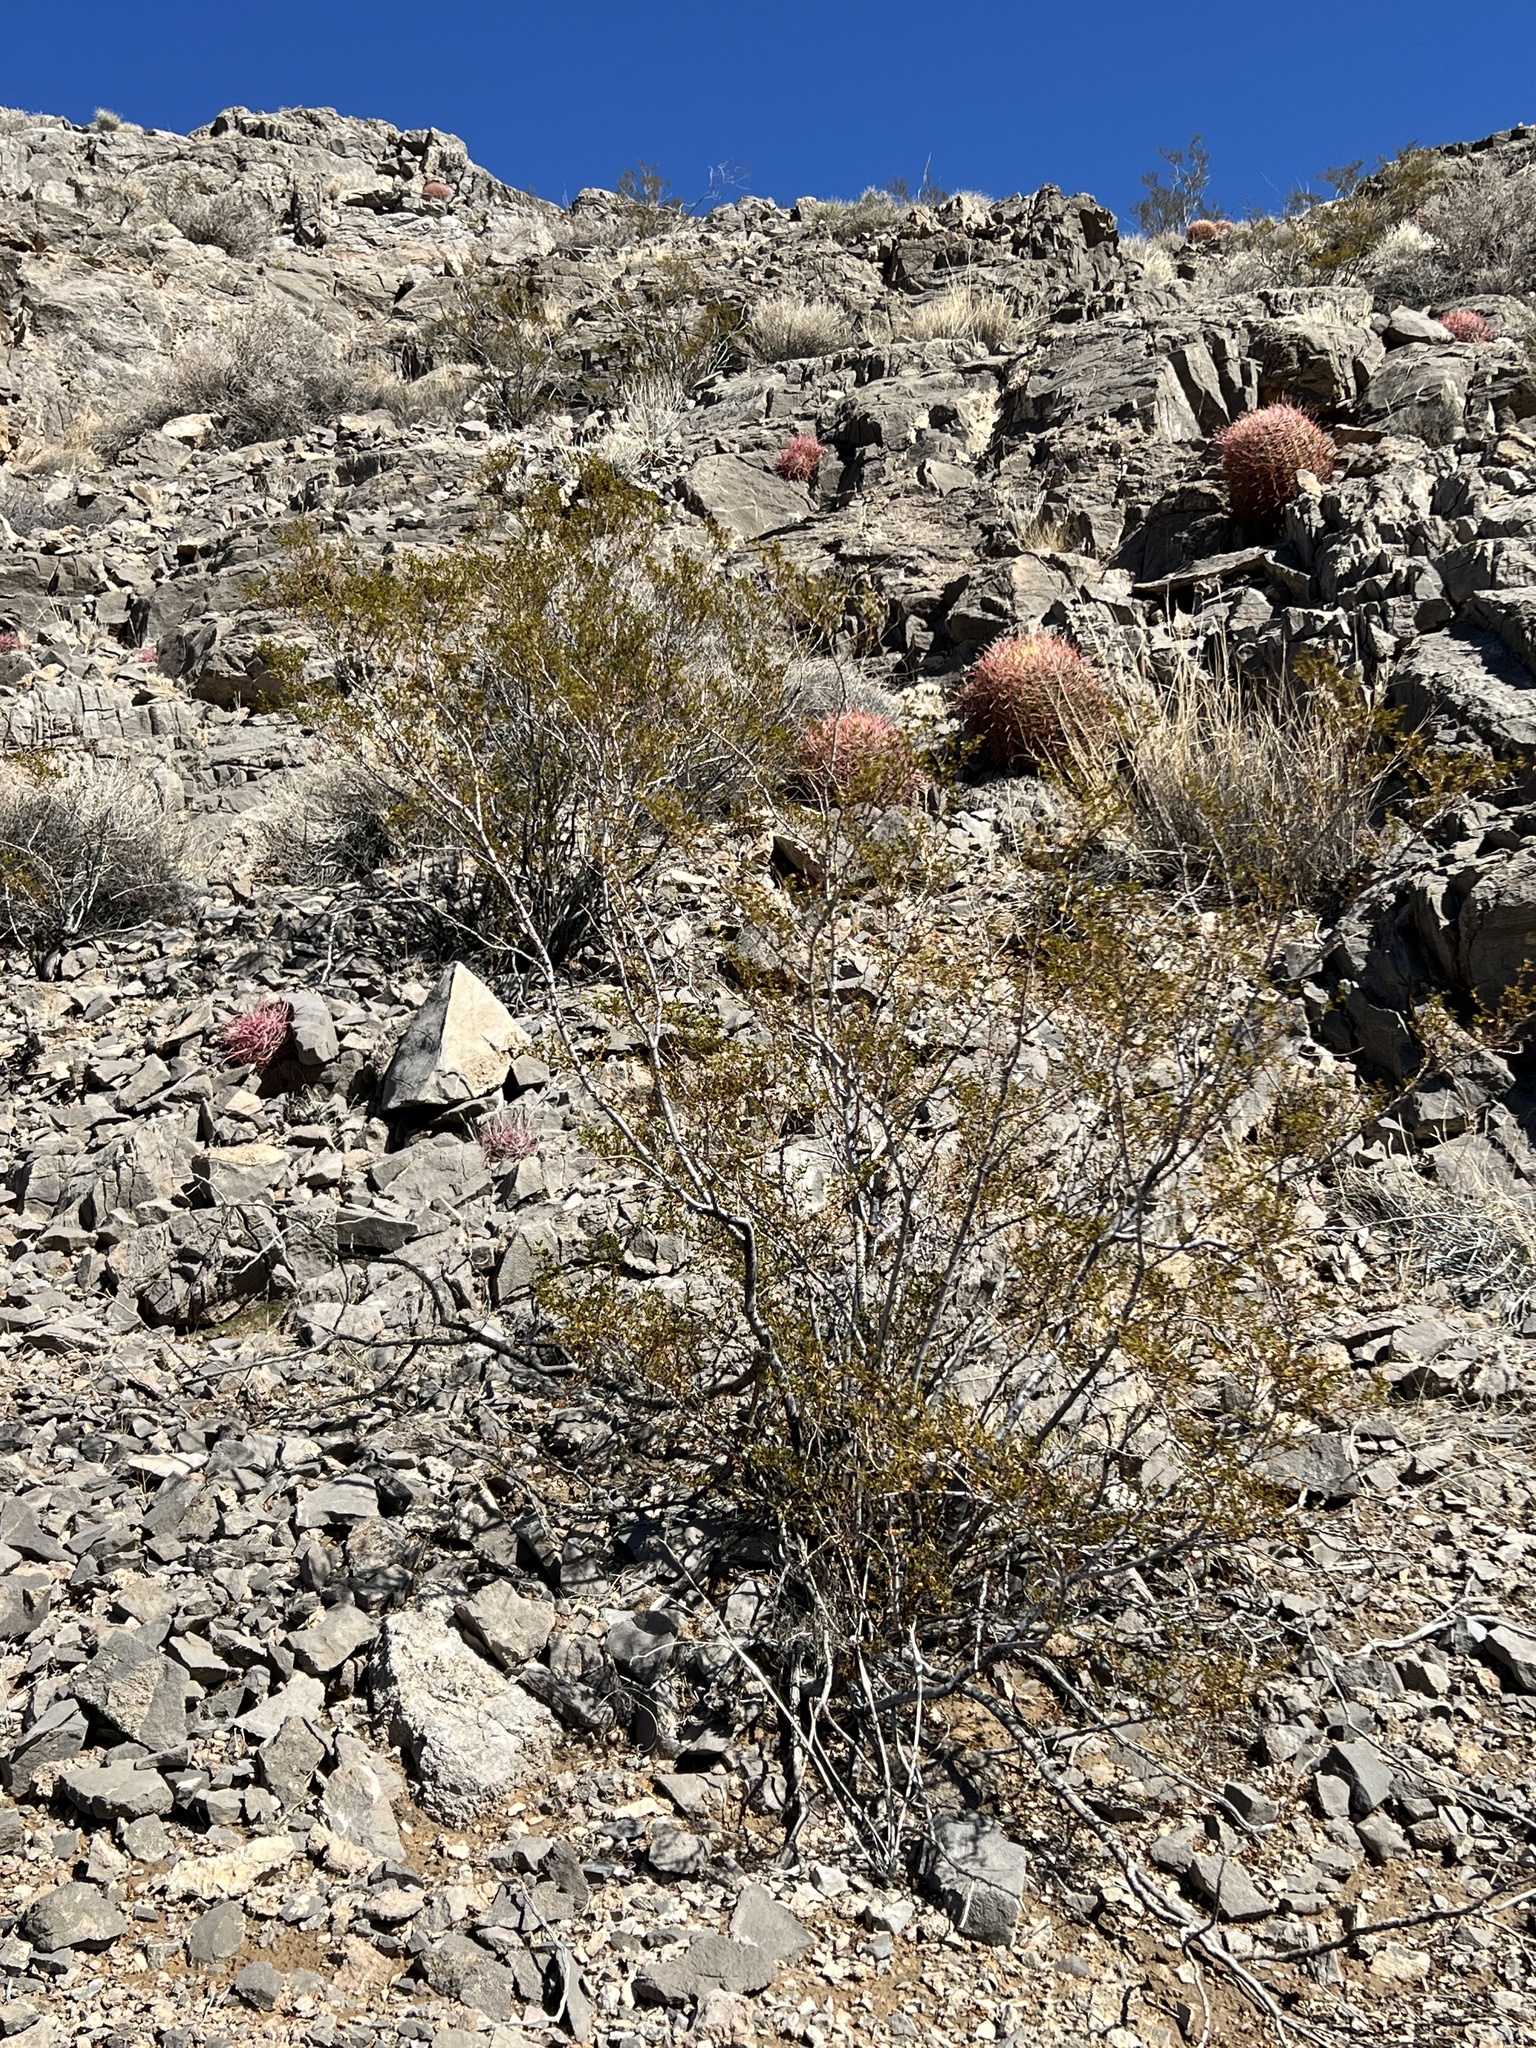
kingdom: Plantae
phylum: Tracheophyta
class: Magnoliopsida
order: Zygophyllales
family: Zygophyllaceae
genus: Larrea
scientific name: Larrea tridentata
